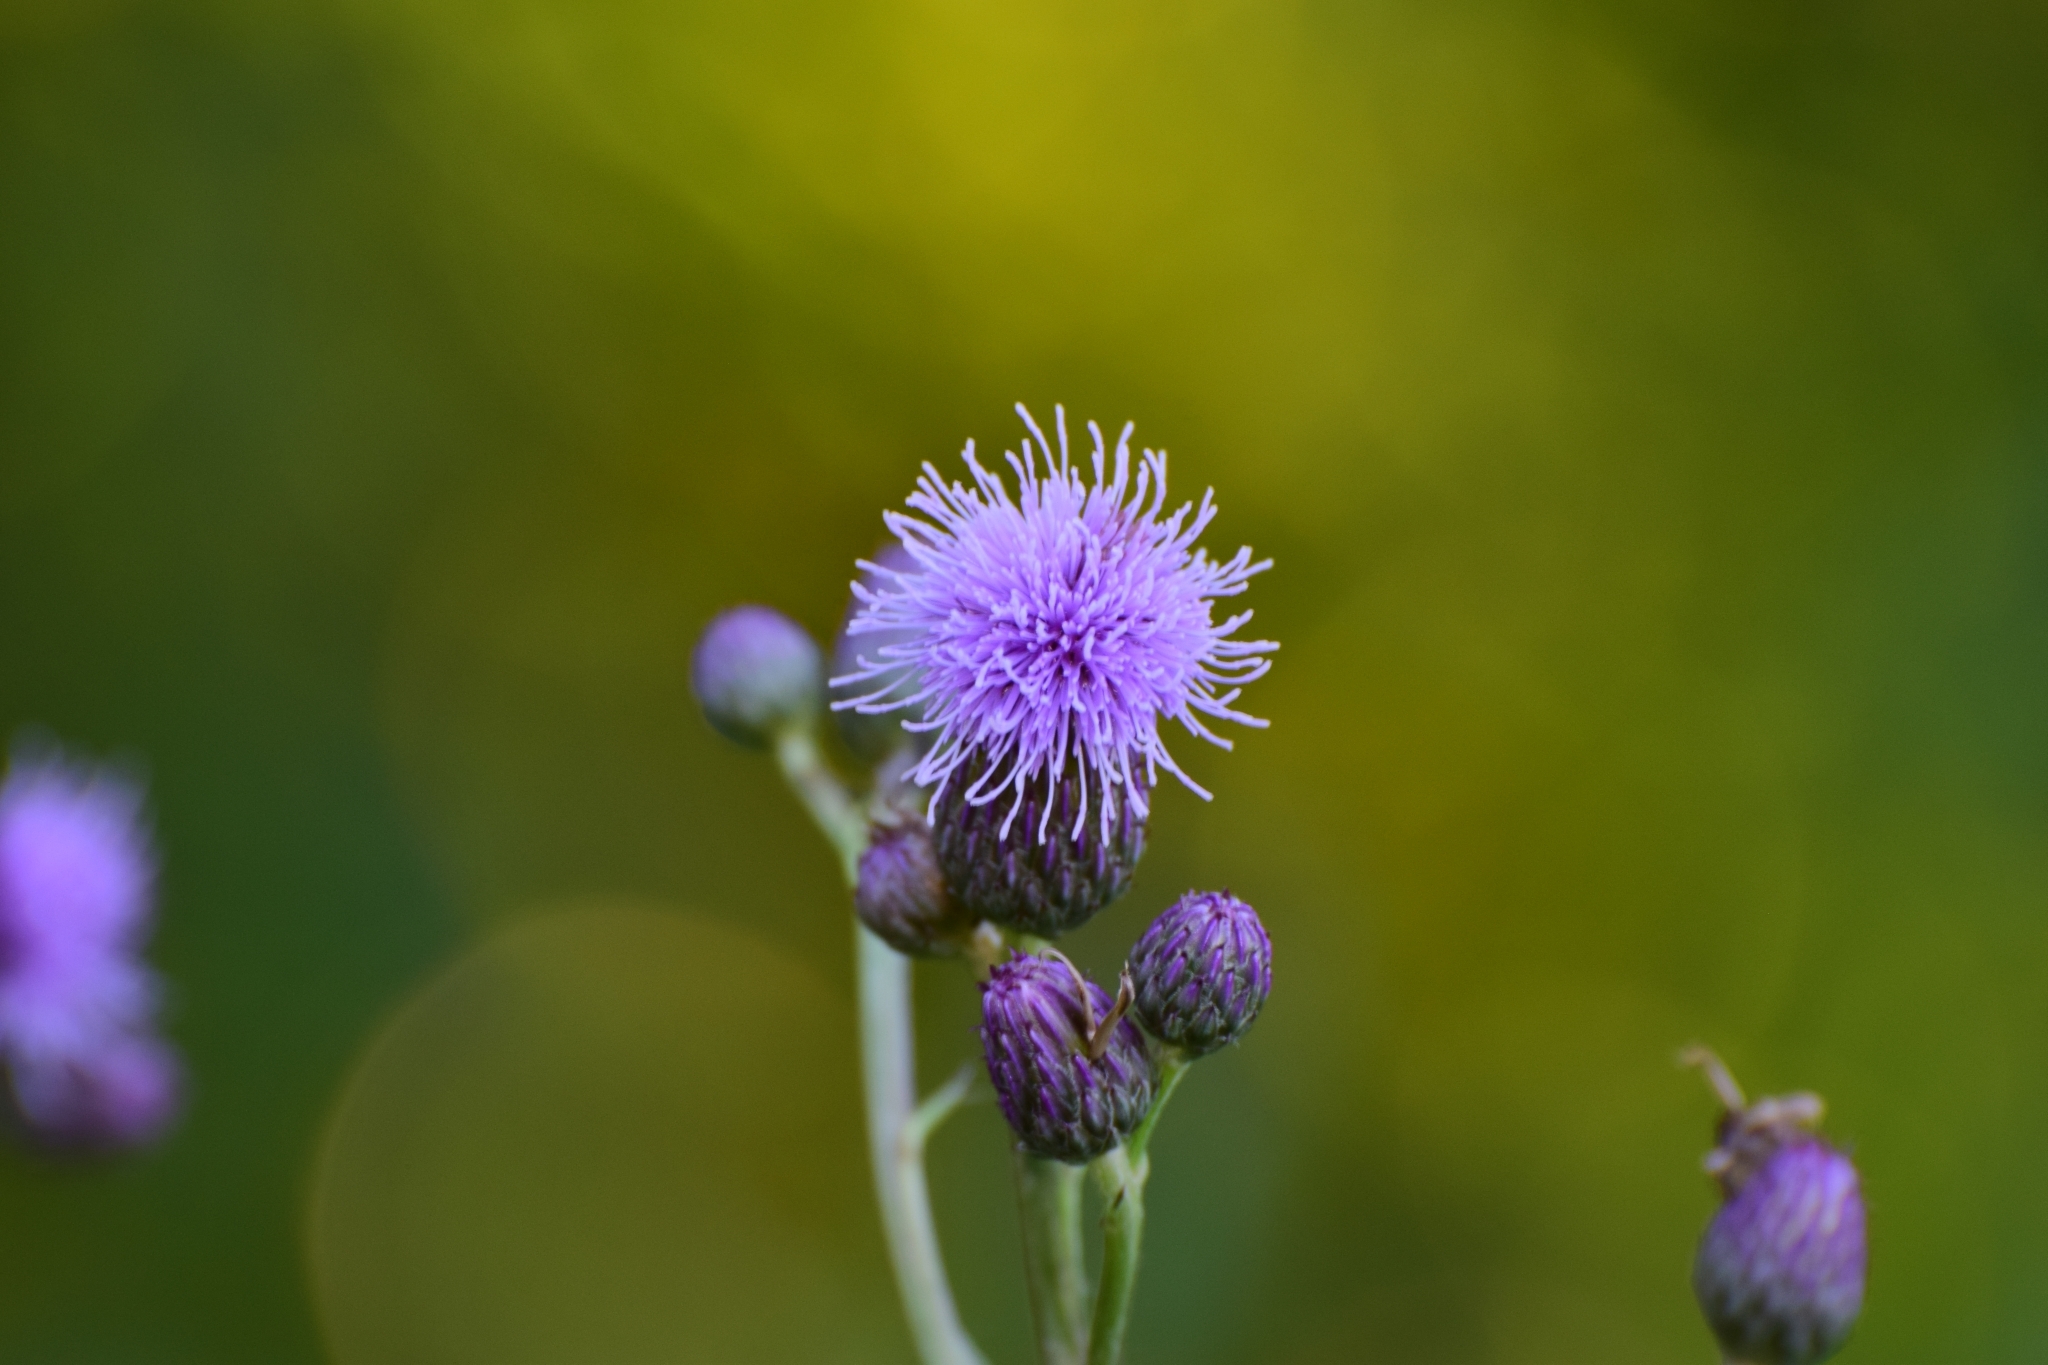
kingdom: Plantae
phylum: Tracheophyta
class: Magnoliopsida
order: Asterales
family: Asteraceae
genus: Cirsium
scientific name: Cirsium arvense
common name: Creeping thistle
